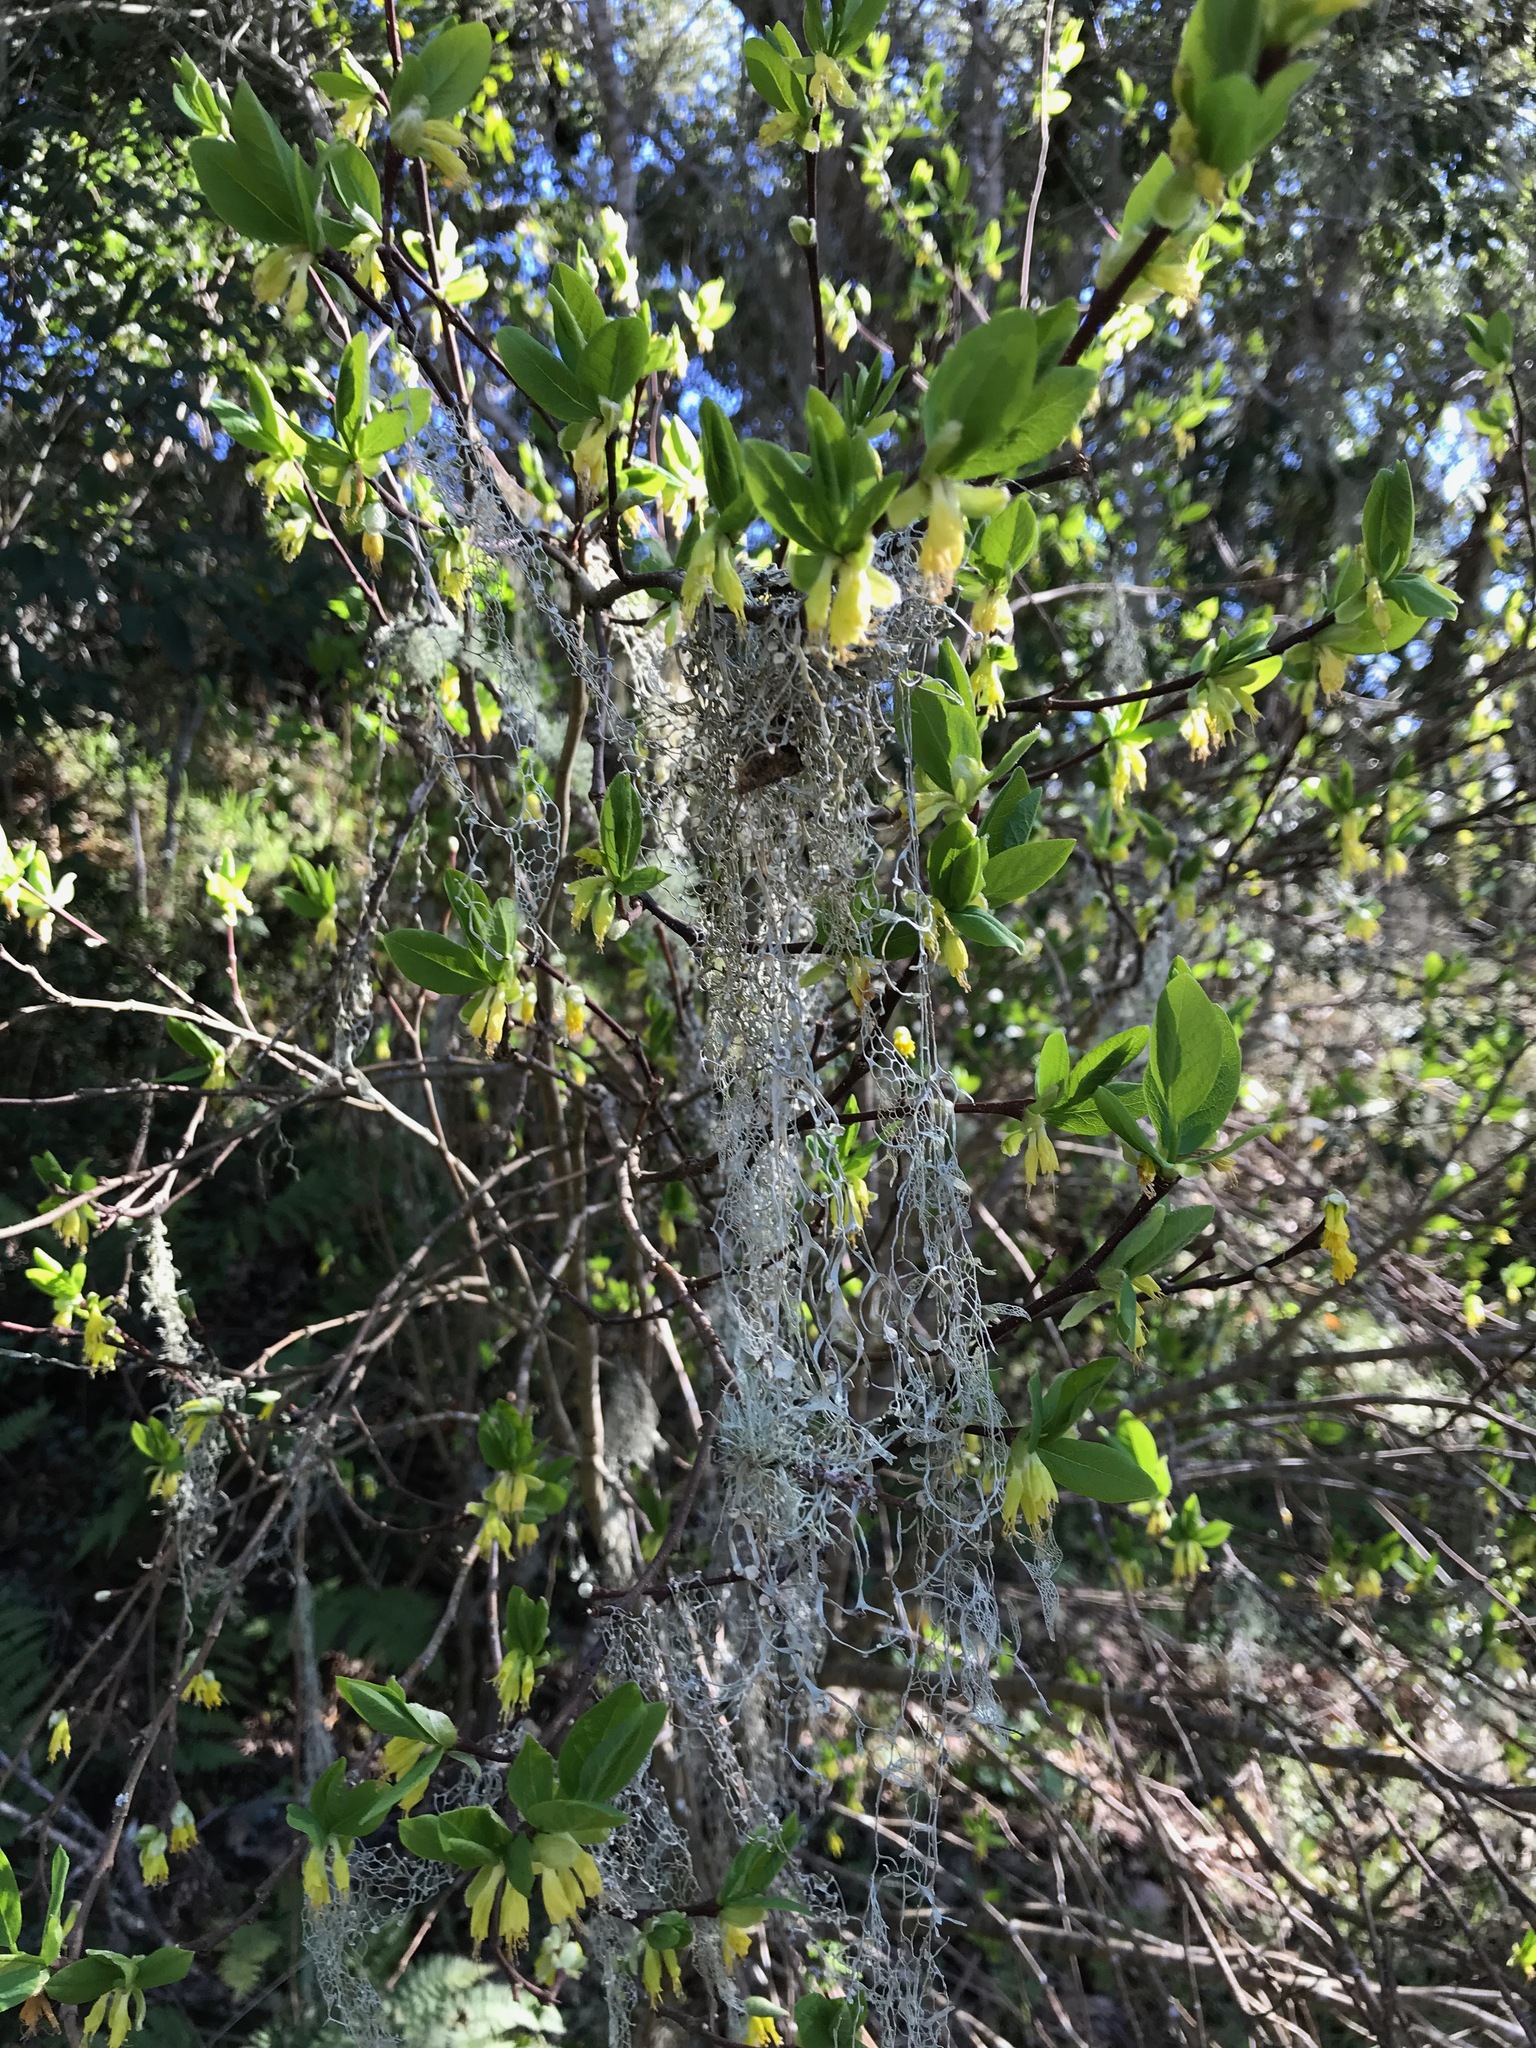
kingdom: Plantae
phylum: Tracheophyta
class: Magnoliopsida
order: Malvales
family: Thymelaeaceae
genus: Dirca
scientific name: Dirca occidentalis
